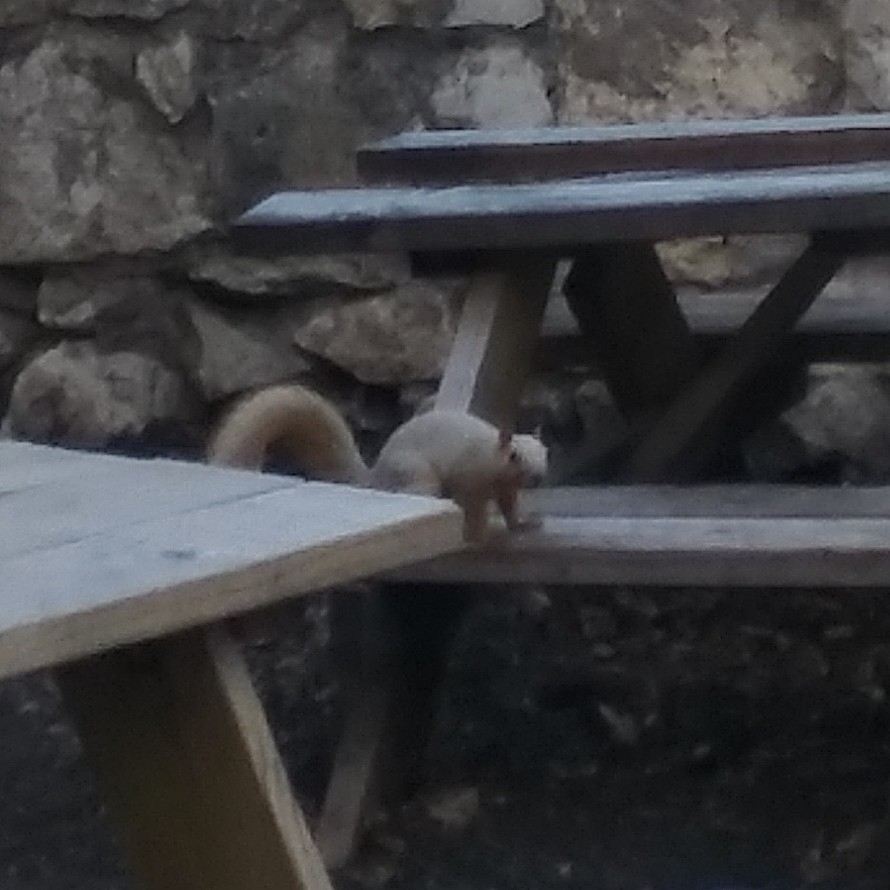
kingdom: Animalia
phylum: Chordata
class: Mammalia
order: Rodentia
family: Sciuridae
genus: Sciurus
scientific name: Sciurus niger
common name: Fox squirrel
